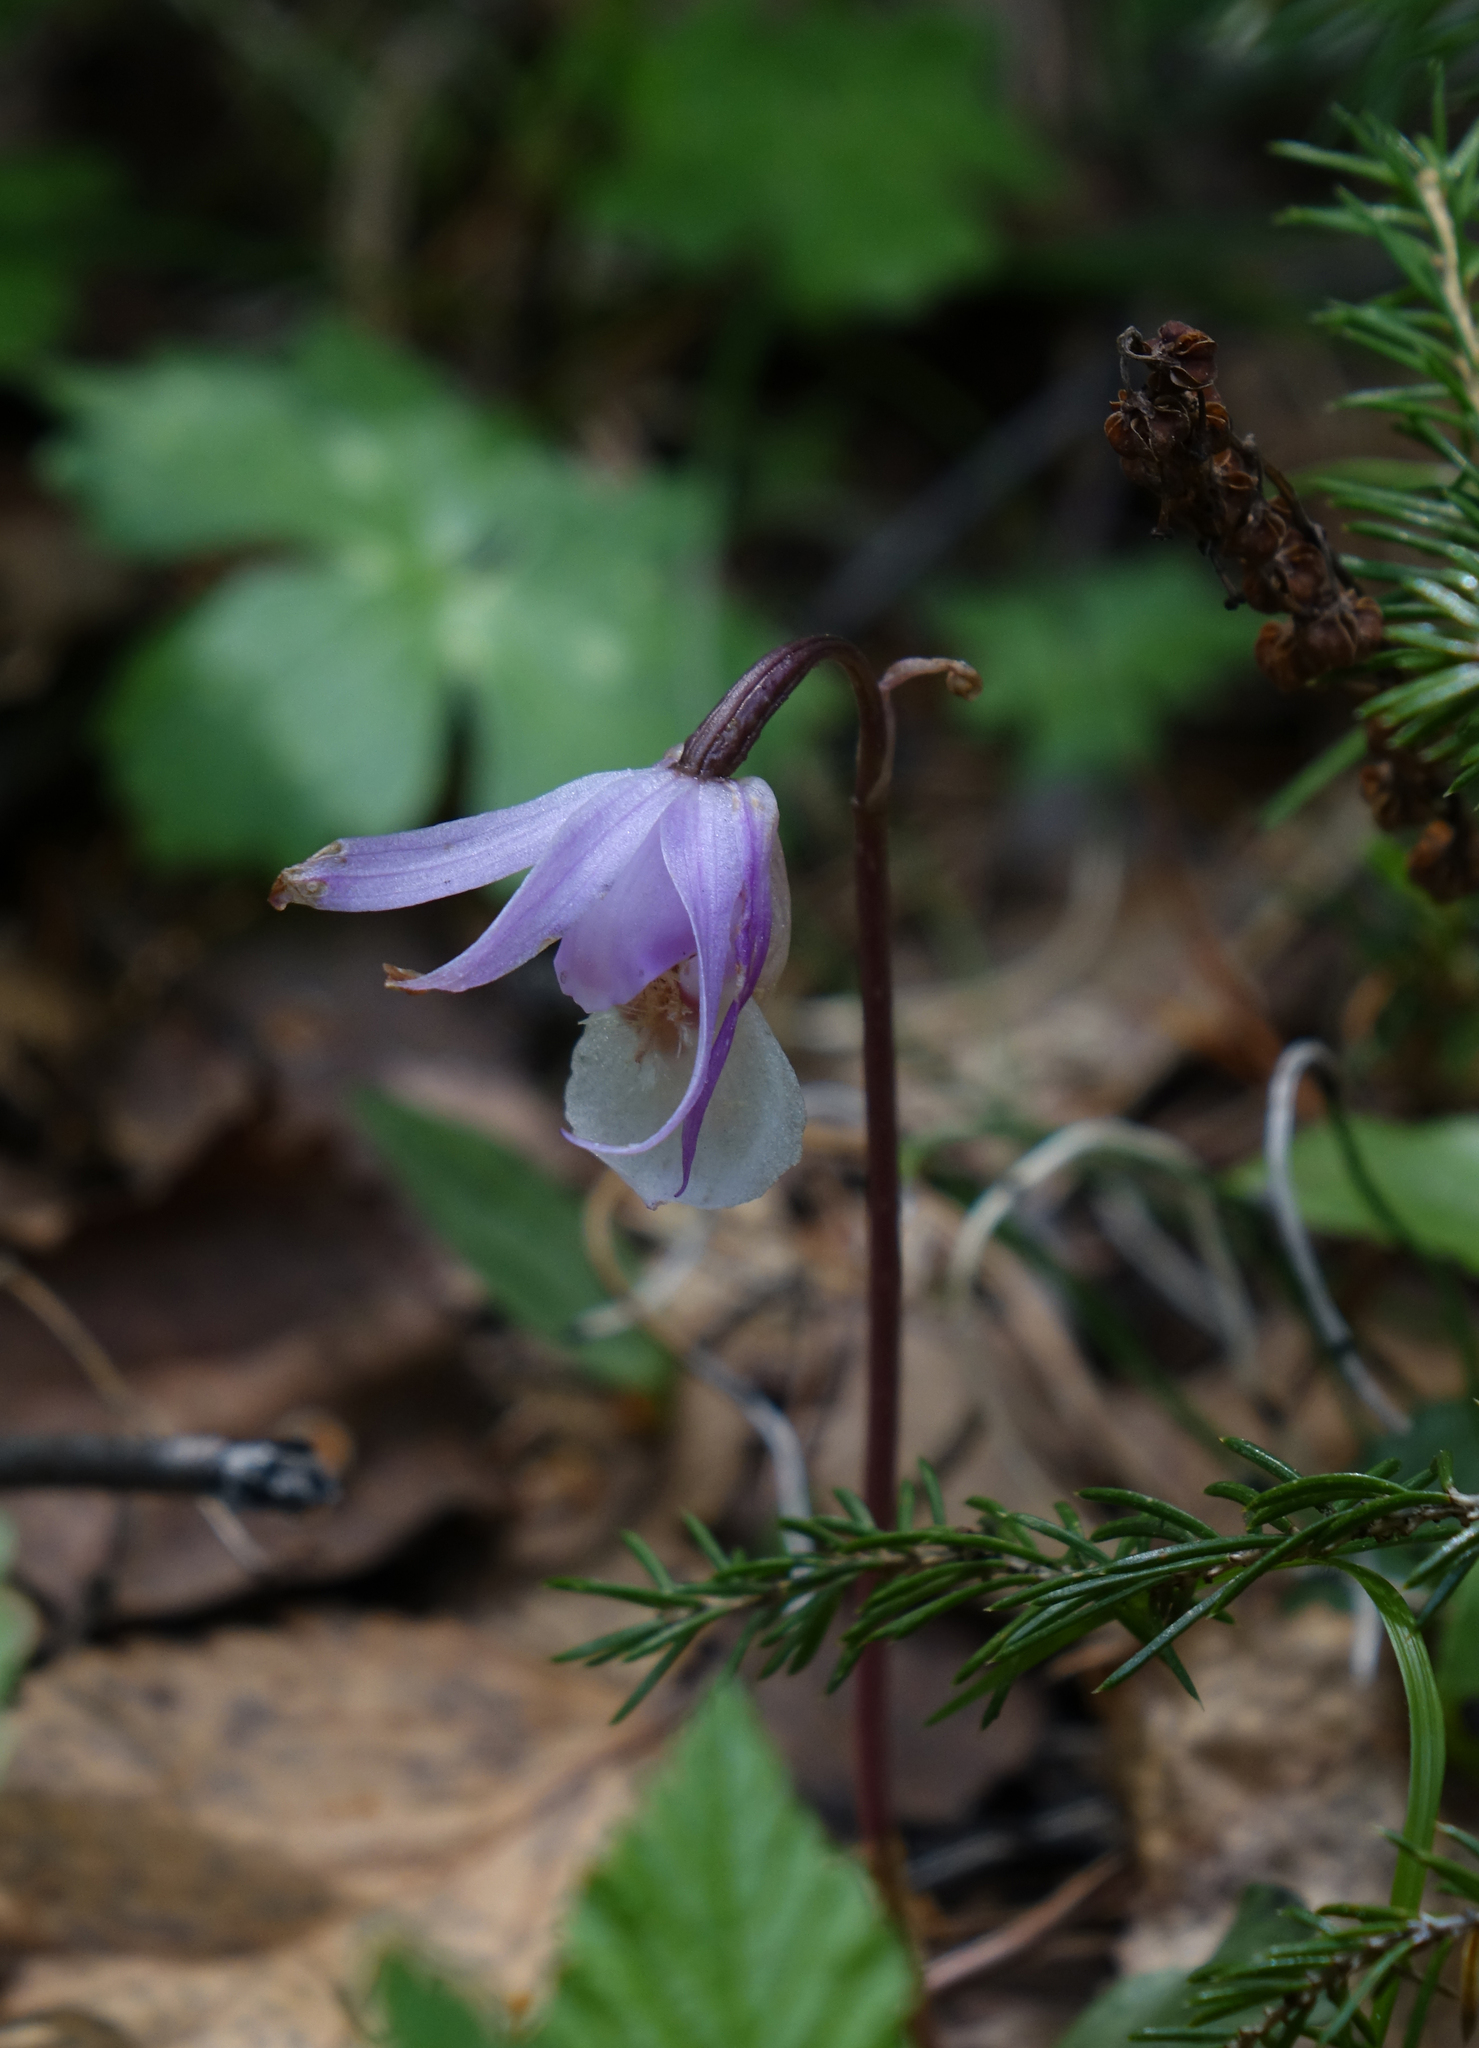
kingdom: Plantae
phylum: Tracheophyta
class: Liliopsida
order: Asparagales
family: Orchidaceae
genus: Calypso
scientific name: Calypso bulbosa
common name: Calypso
